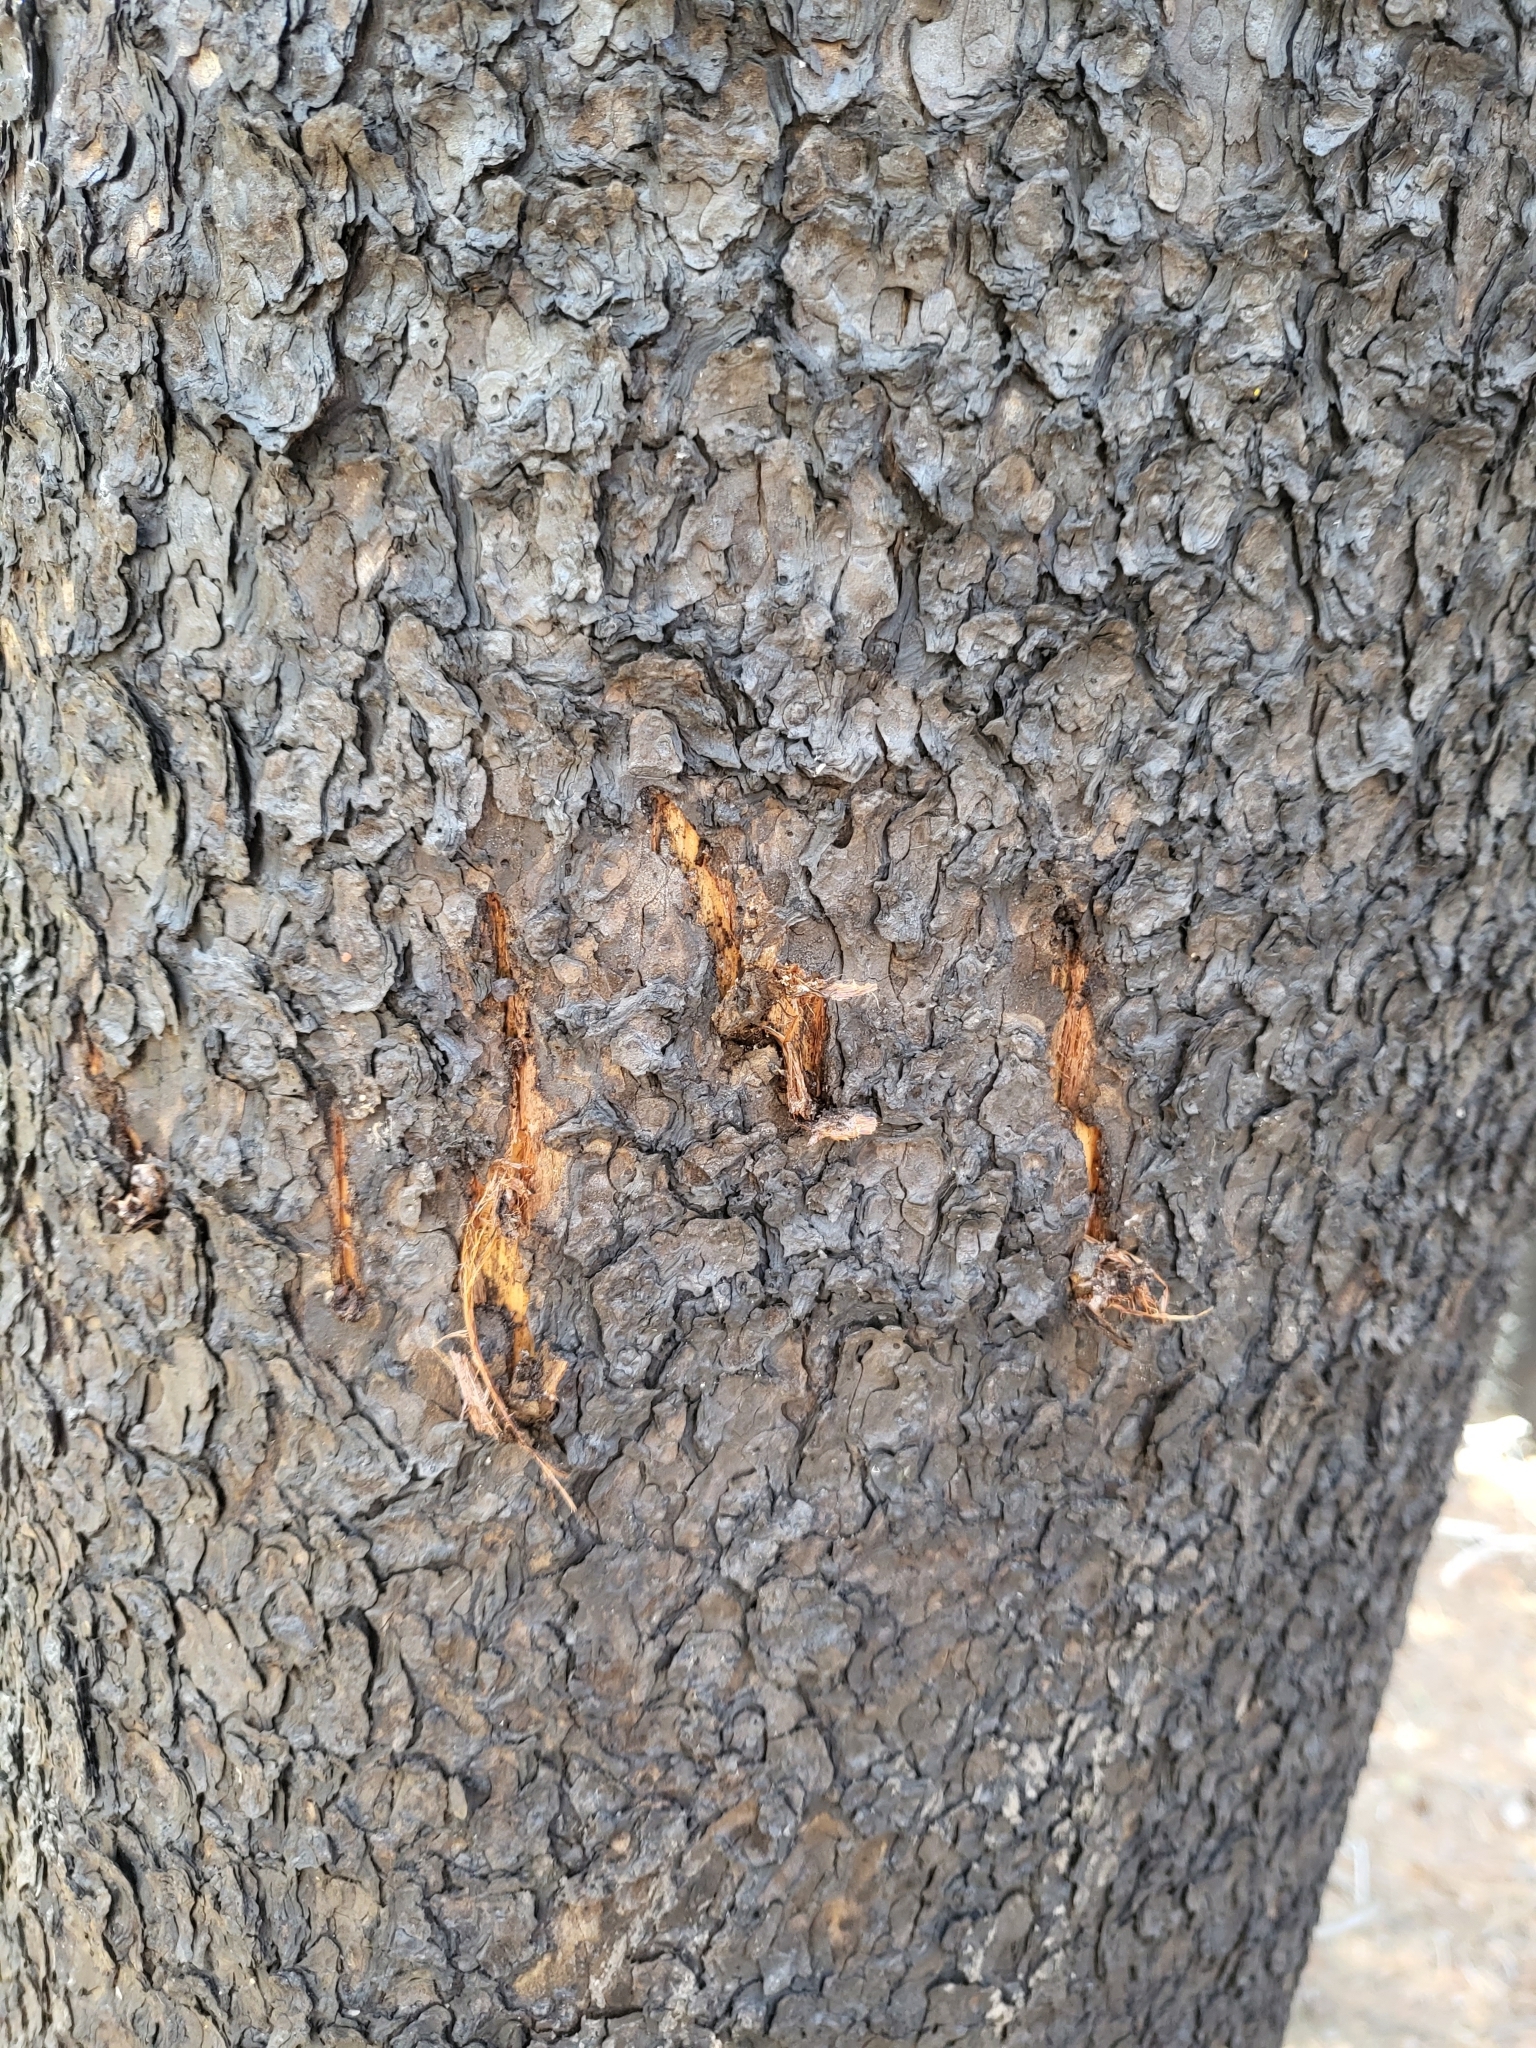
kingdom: Animalia
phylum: Chordata
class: Mammalia
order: Carnivora
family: Ursidae
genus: Ursus
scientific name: Ursus americanus
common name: American black bear
